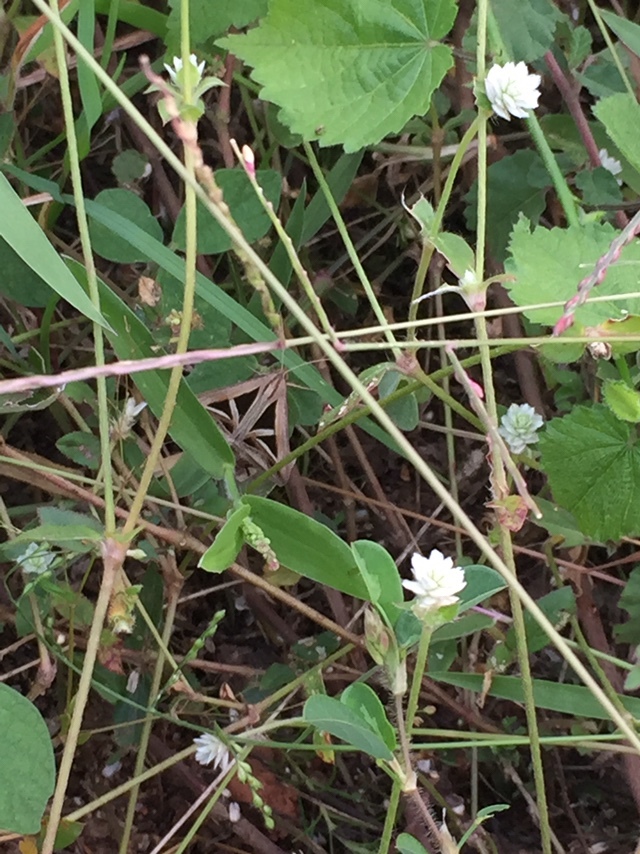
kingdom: Animalia
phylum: Arthropoda
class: Insecta
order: Lepidoptera
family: Erebidae
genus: Trigonodes
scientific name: Trigonodes hyppasia
